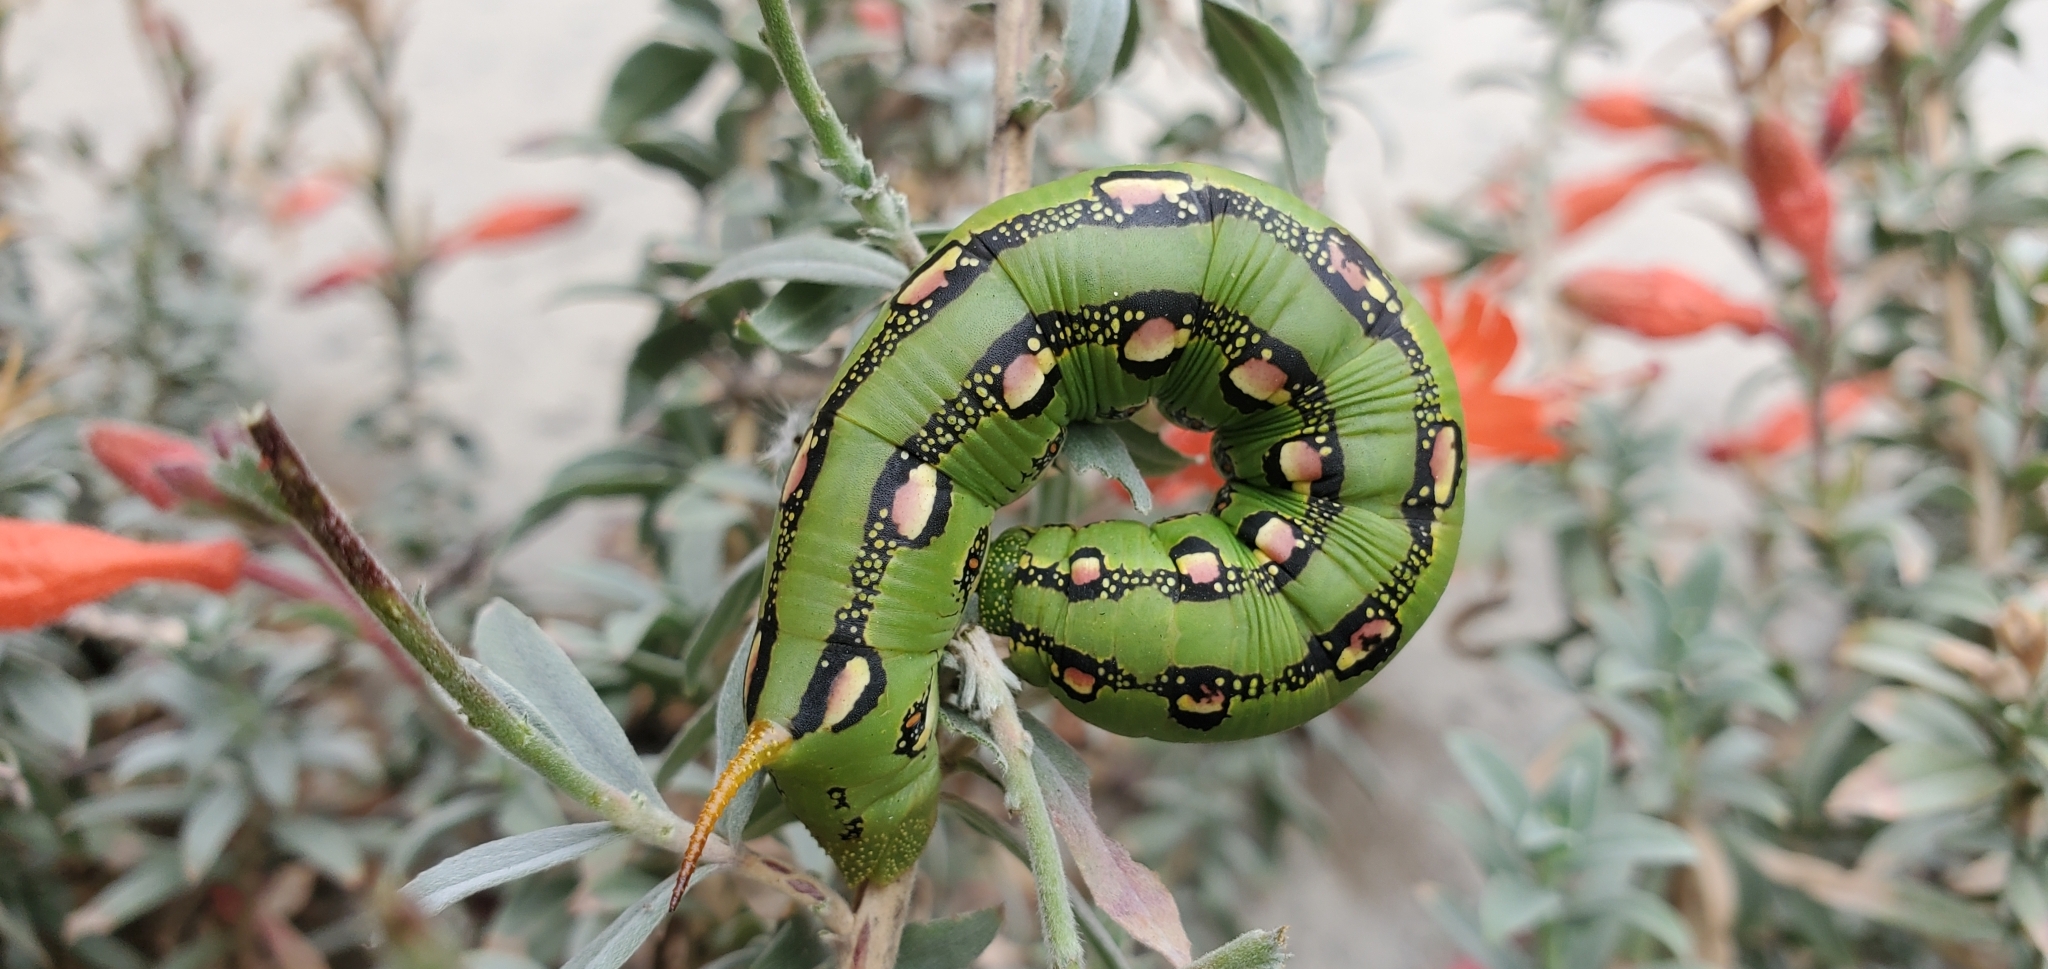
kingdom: Animalia
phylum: Arthropoda
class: Insecta
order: Lepidoptera
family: Sphingidae
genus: Hyles
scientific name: Hyles lineata
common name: White-lined sphinx
